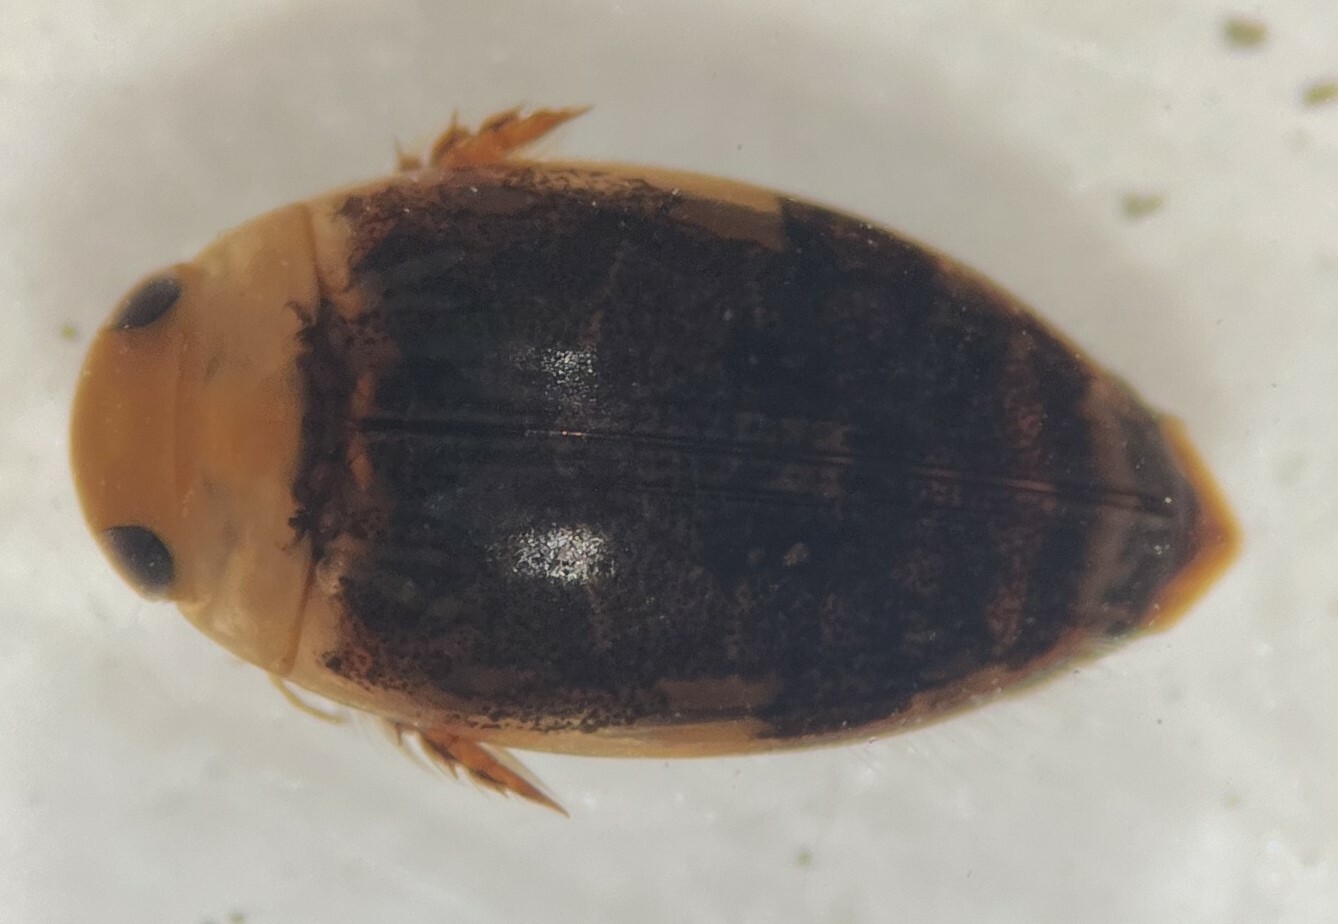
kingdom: Animalia
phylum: Arthropoda
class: Insecta
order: Coleoptera
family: Dytiscidae
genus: Laccophilus
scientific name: Laccophilus proximus
